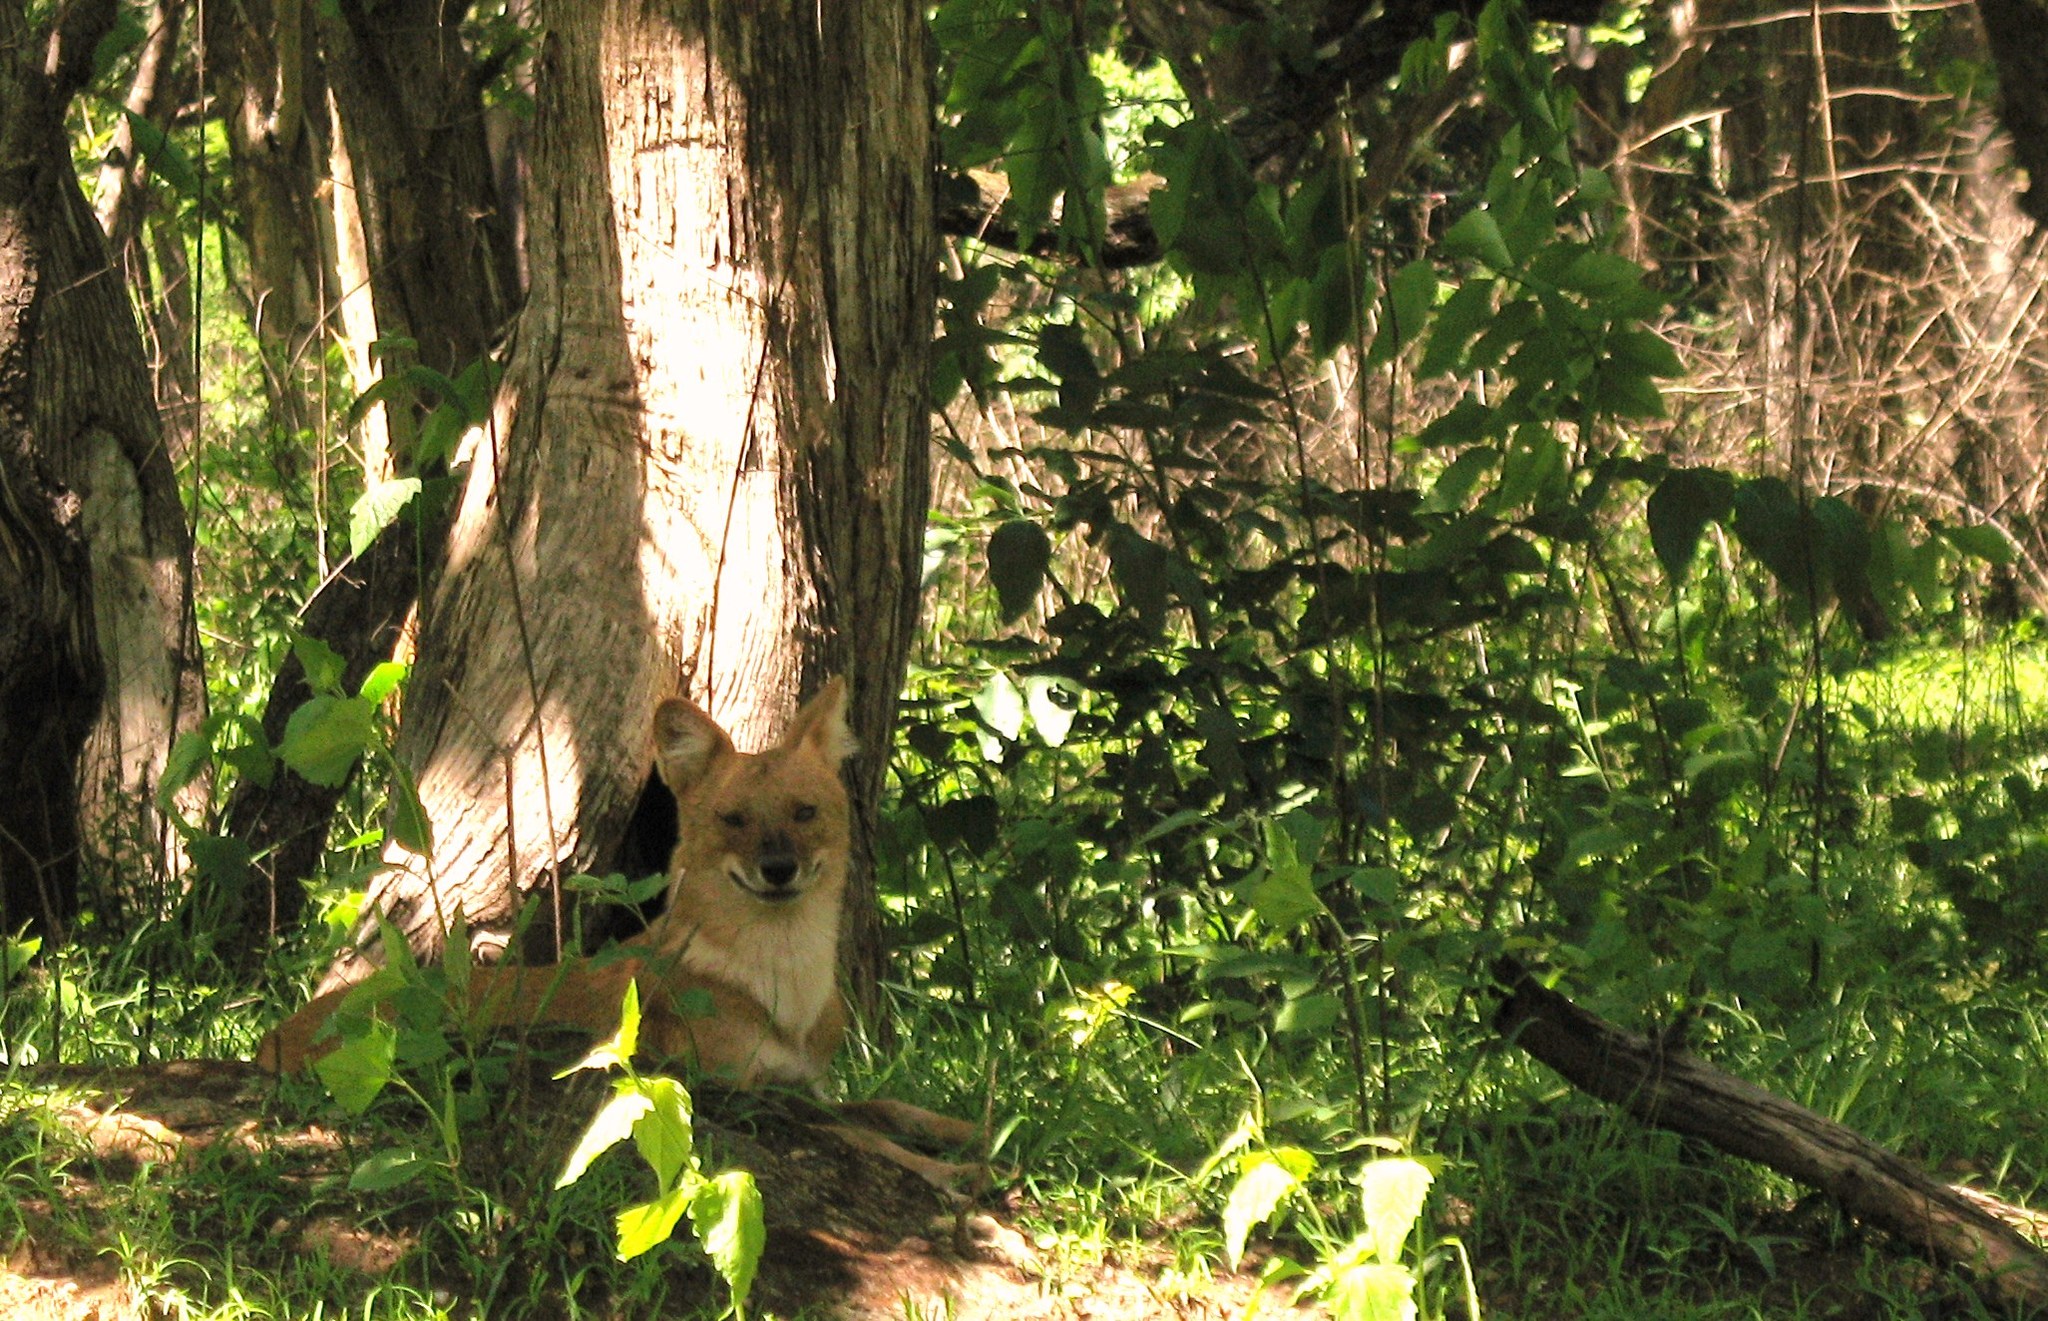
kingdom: Animalia
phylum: Chordata
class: Mammalia
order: Carnivora
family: Canidae
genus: Cuon
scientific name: Cuon alpinus
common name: Dhole
